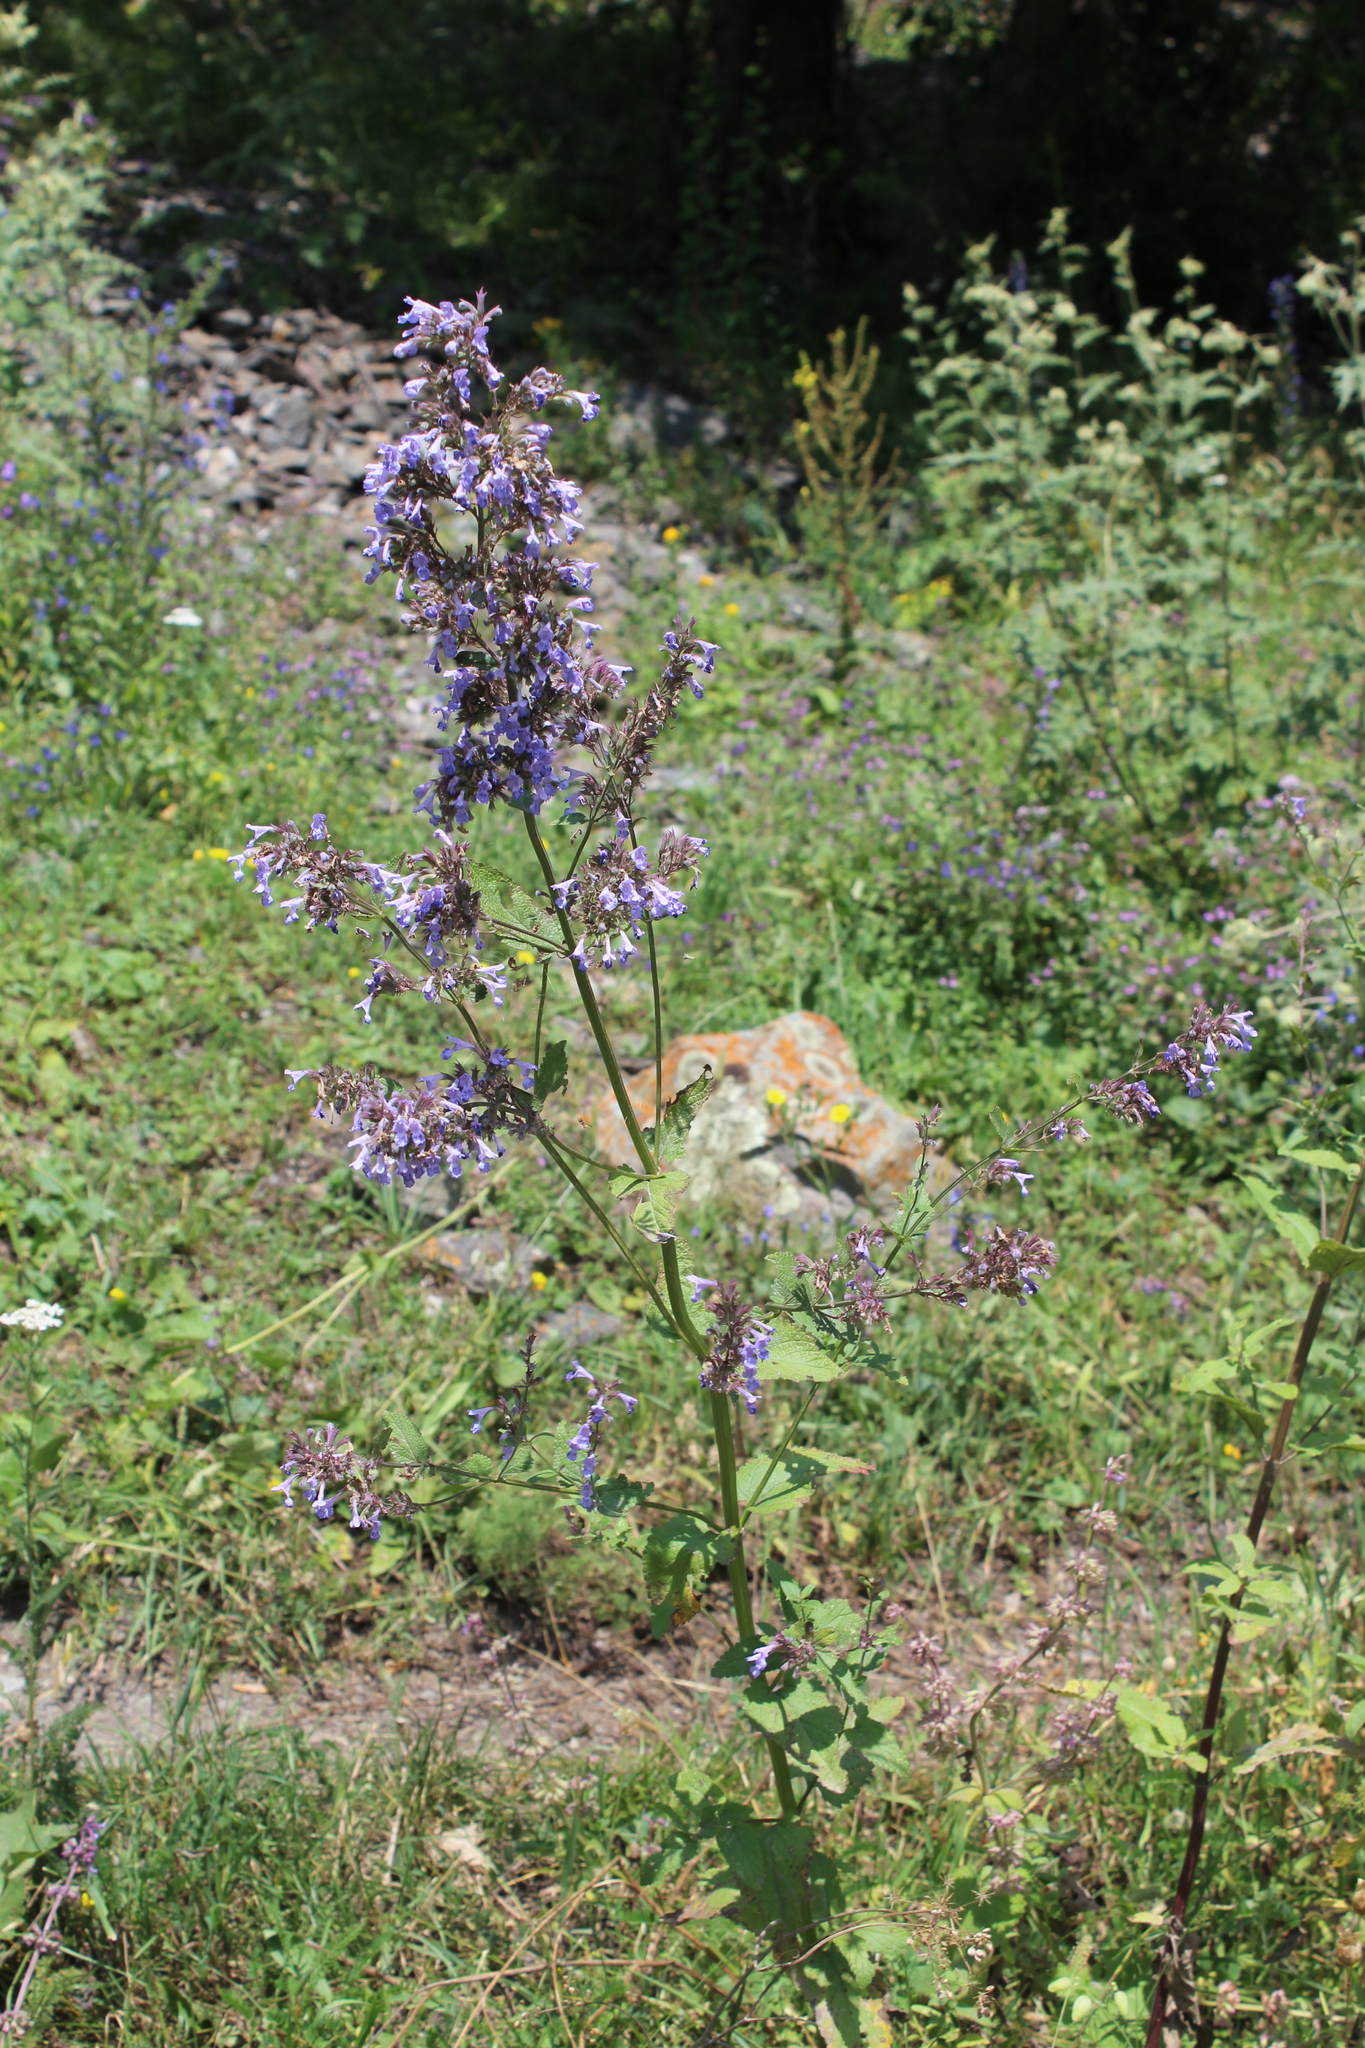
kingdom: Plantae
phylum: Tracheophyta
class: Magnoliopsida
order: Lamiales
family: Lamiaceae
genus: Nepeta
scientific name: Nepeta grandiflora
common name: Caucasus catmint
